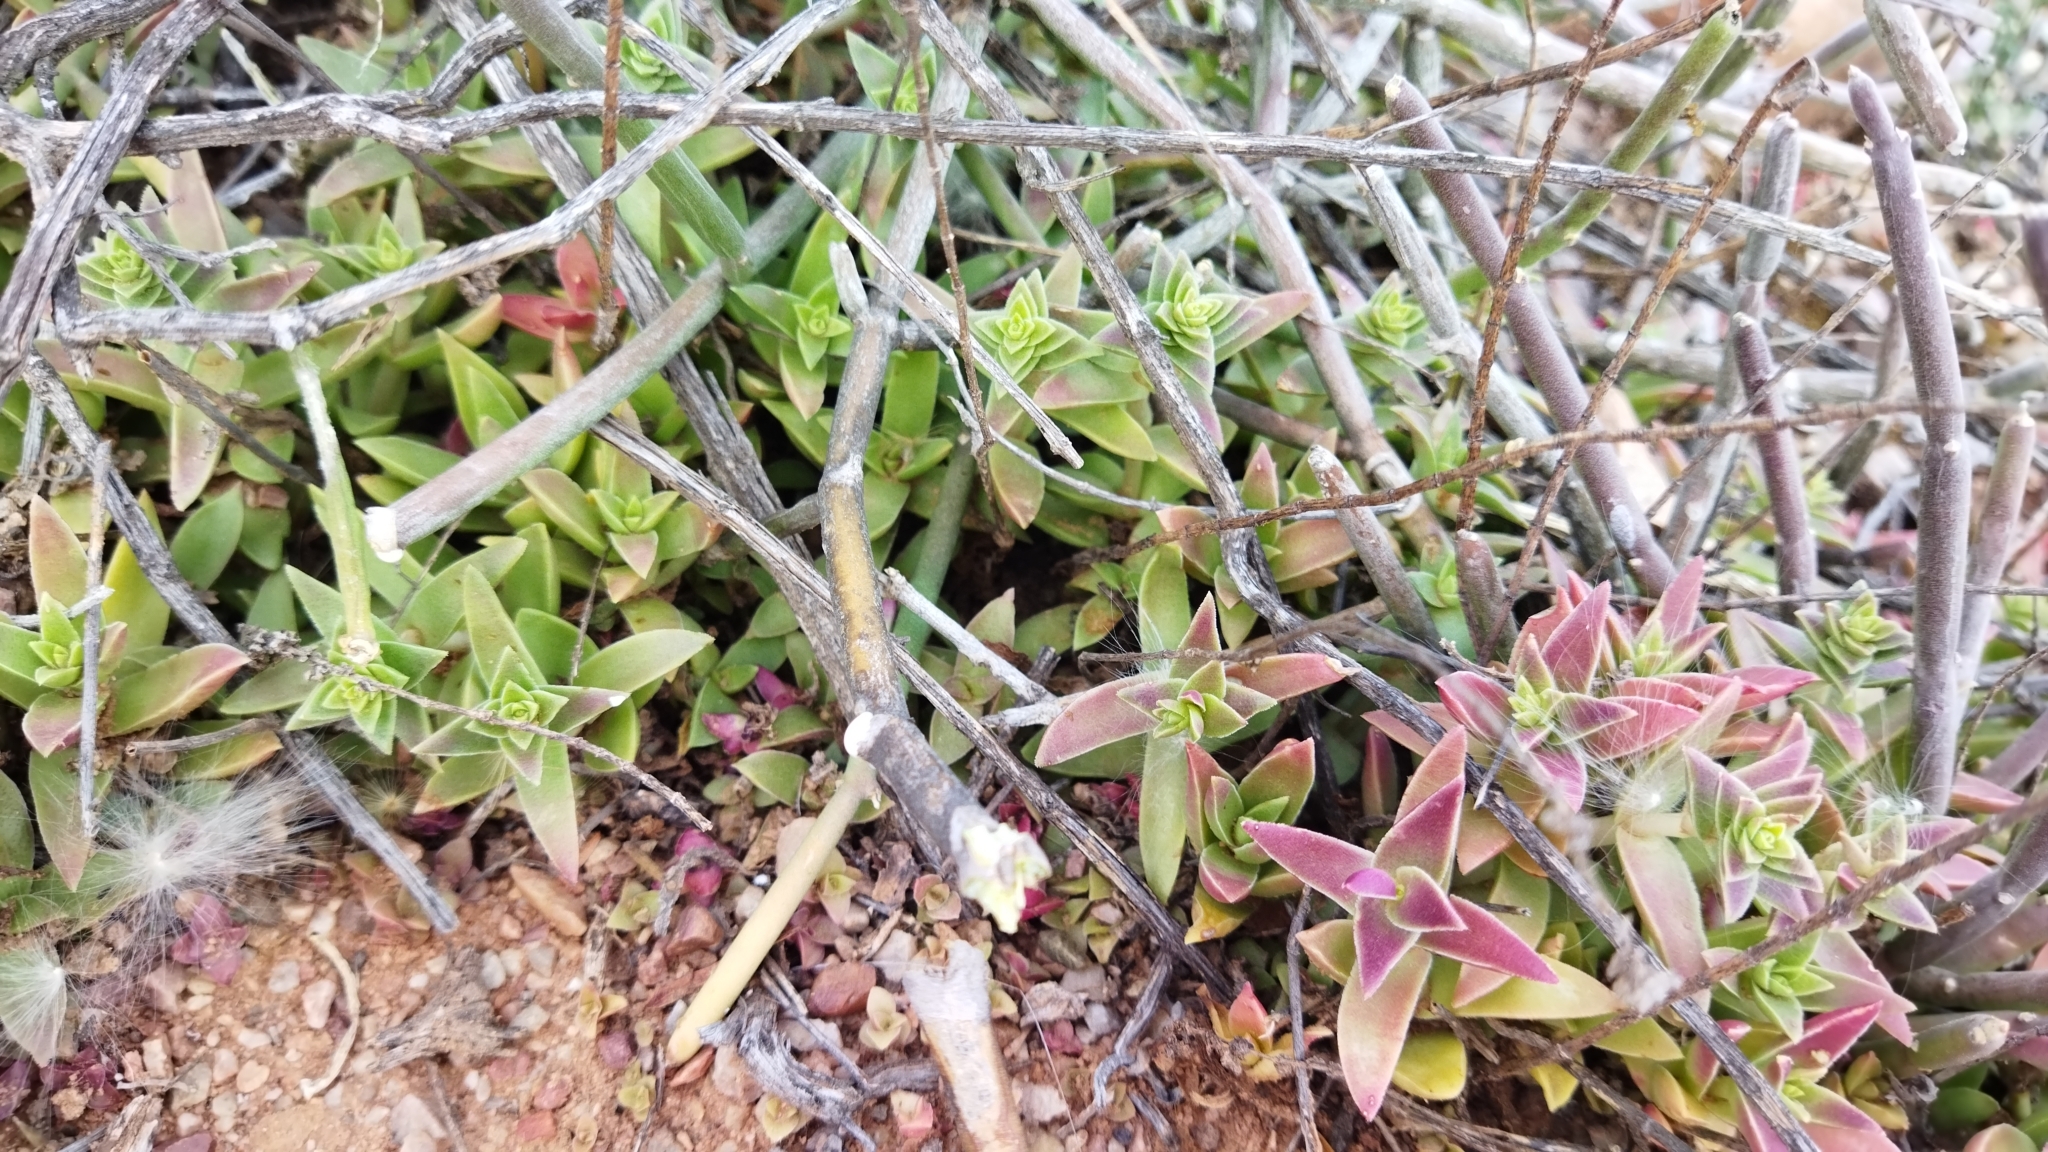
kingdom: Plantae
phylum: Tracheophyta
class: Magnoliopsida
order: Saxifragales
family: Crassulaceae
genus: Crassula
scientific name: Crassula capitella
